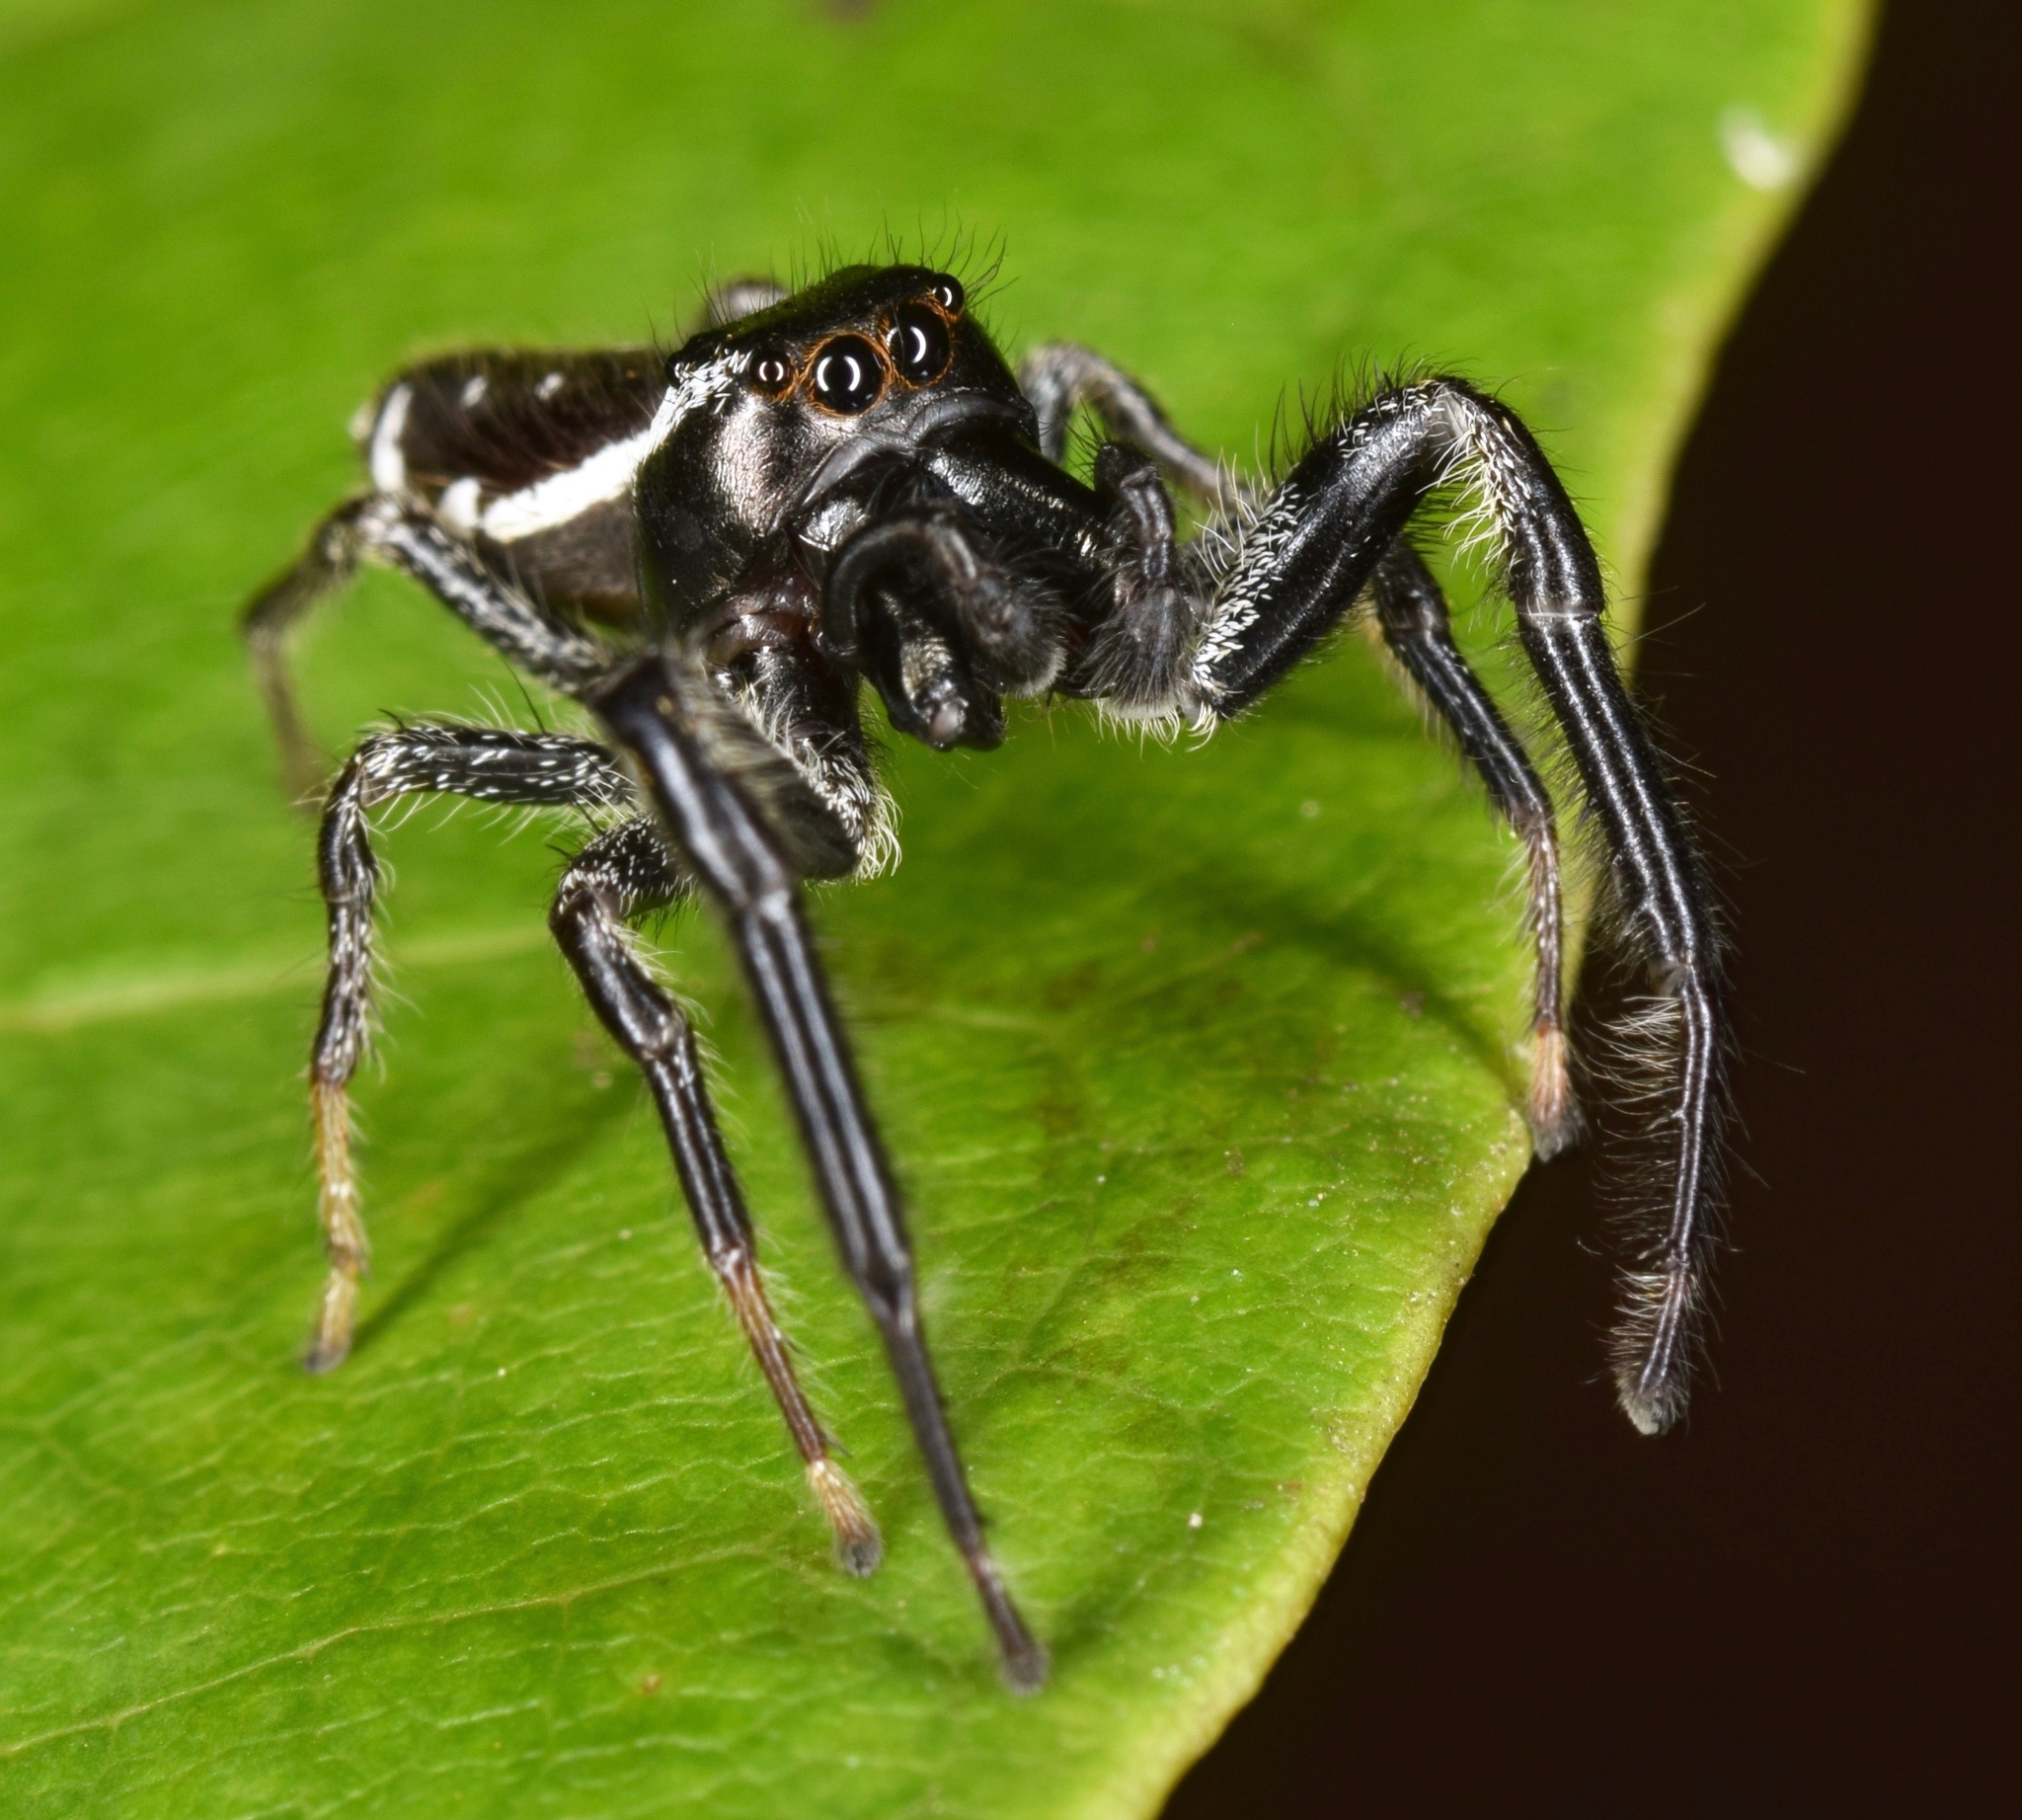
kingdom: Animalia
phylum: Arthropoda
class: Arachnida
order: Araneae
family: Salticidae
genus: Paraphidippus
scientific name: Paraphidippus aurantius
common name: Jumping spiders
